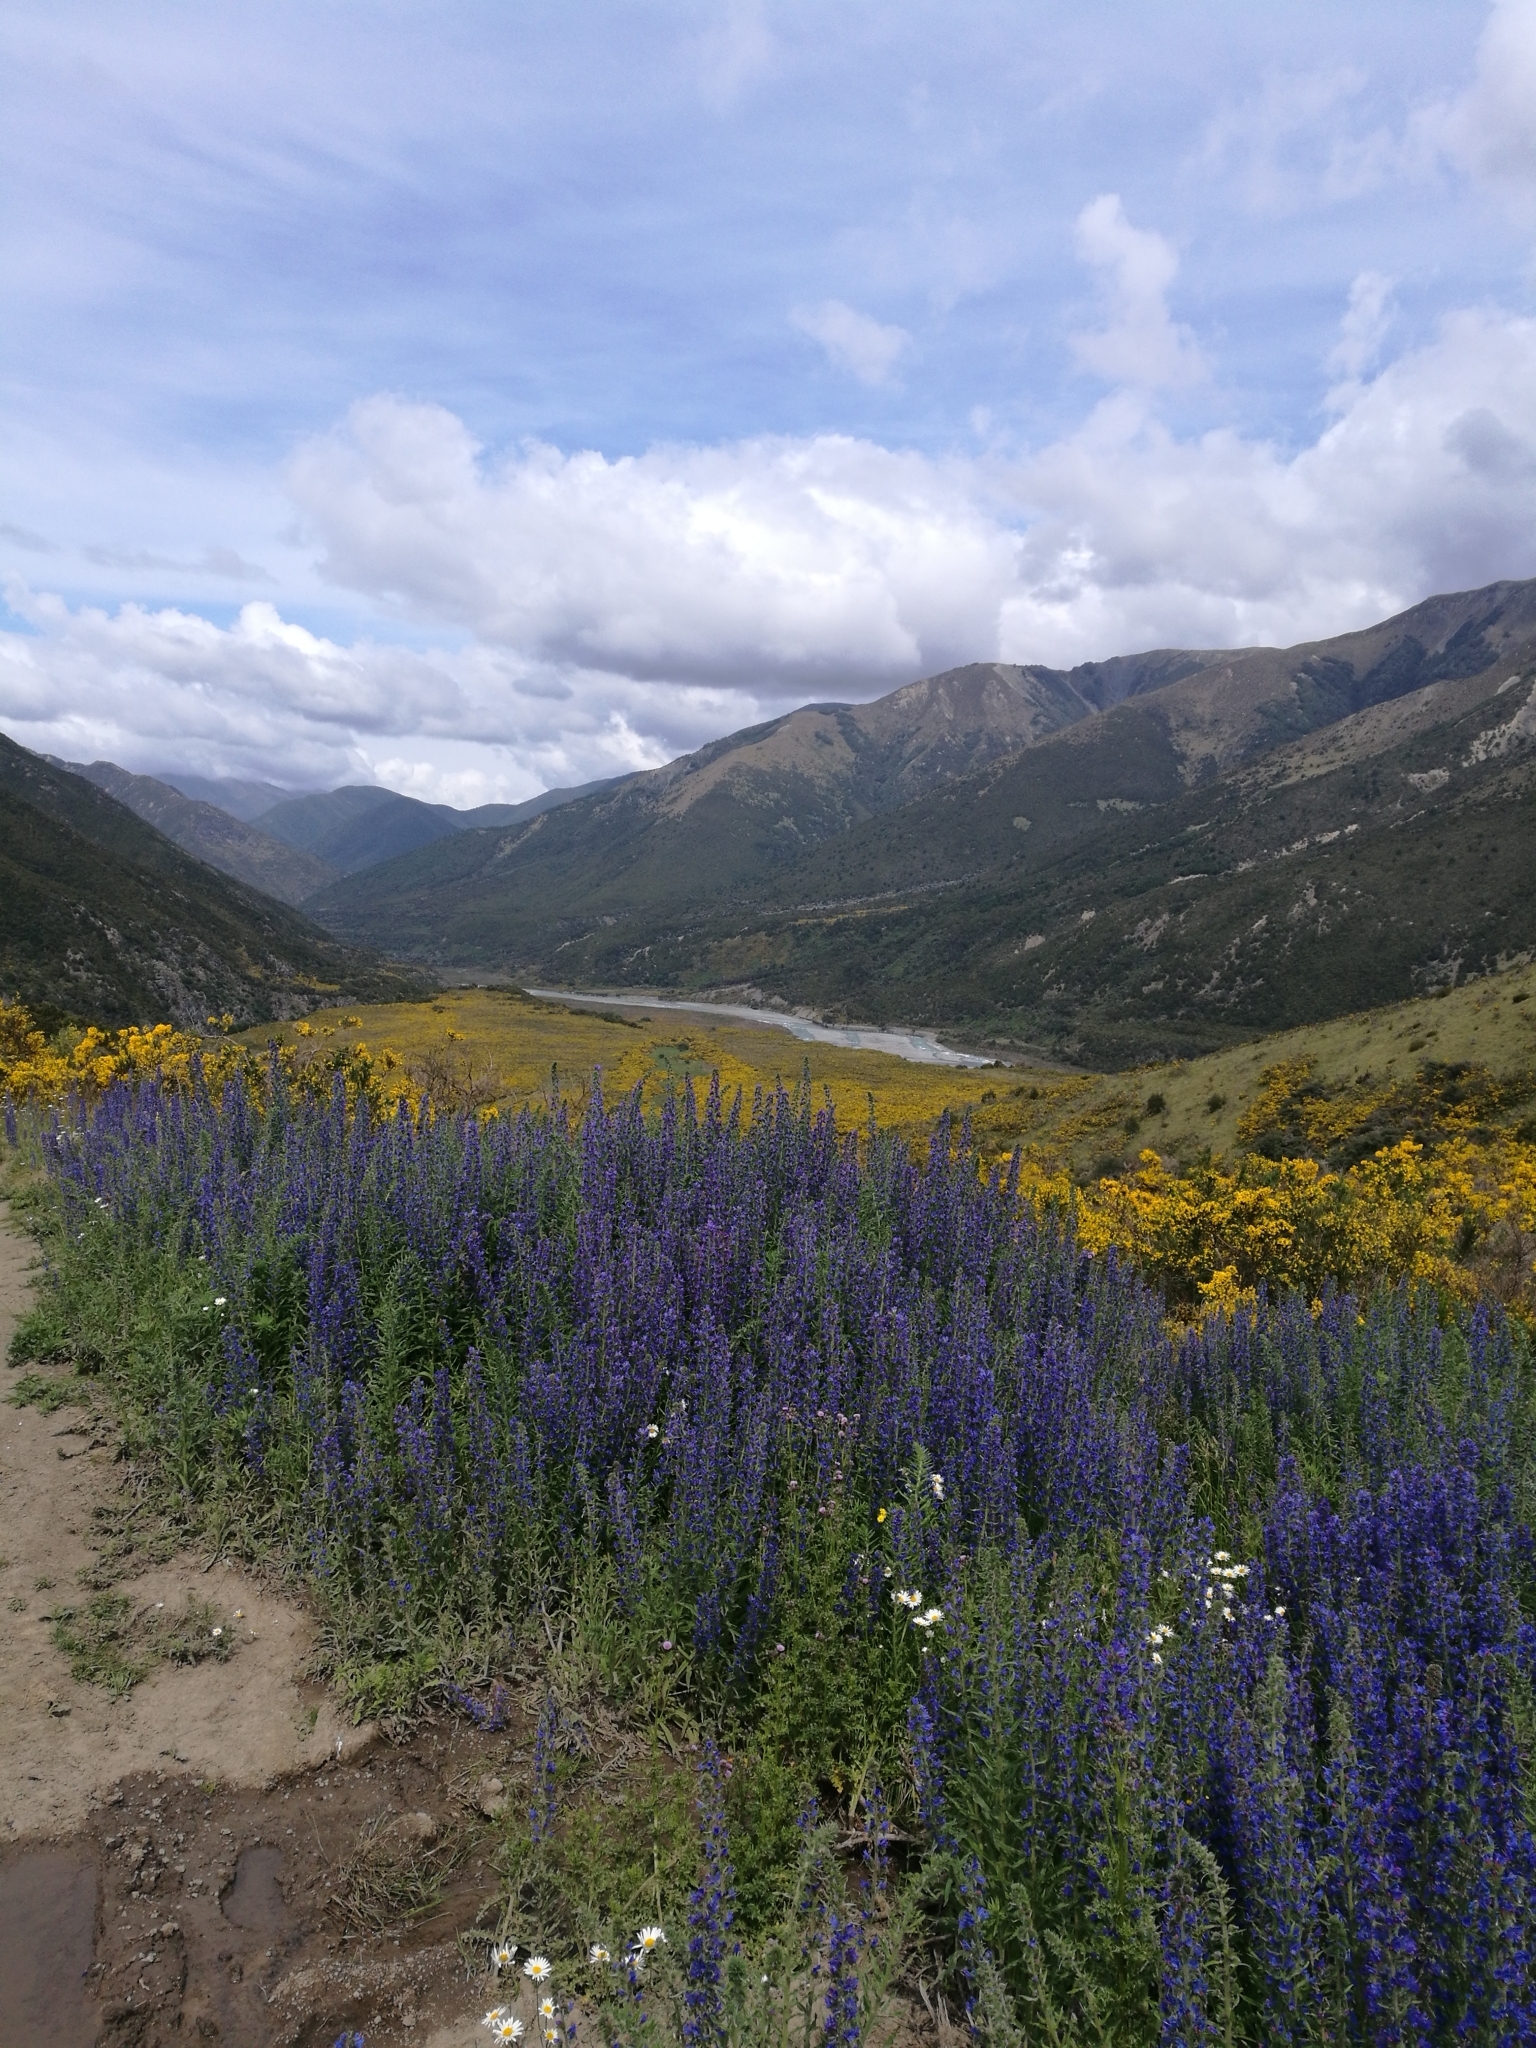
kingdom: Plantae
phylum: Tracheophyta
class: Magnoliopsida
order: Boraginales
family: Boraginaceae
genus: Echium
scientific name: Echium vulgare
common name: Common viper's bugloss
